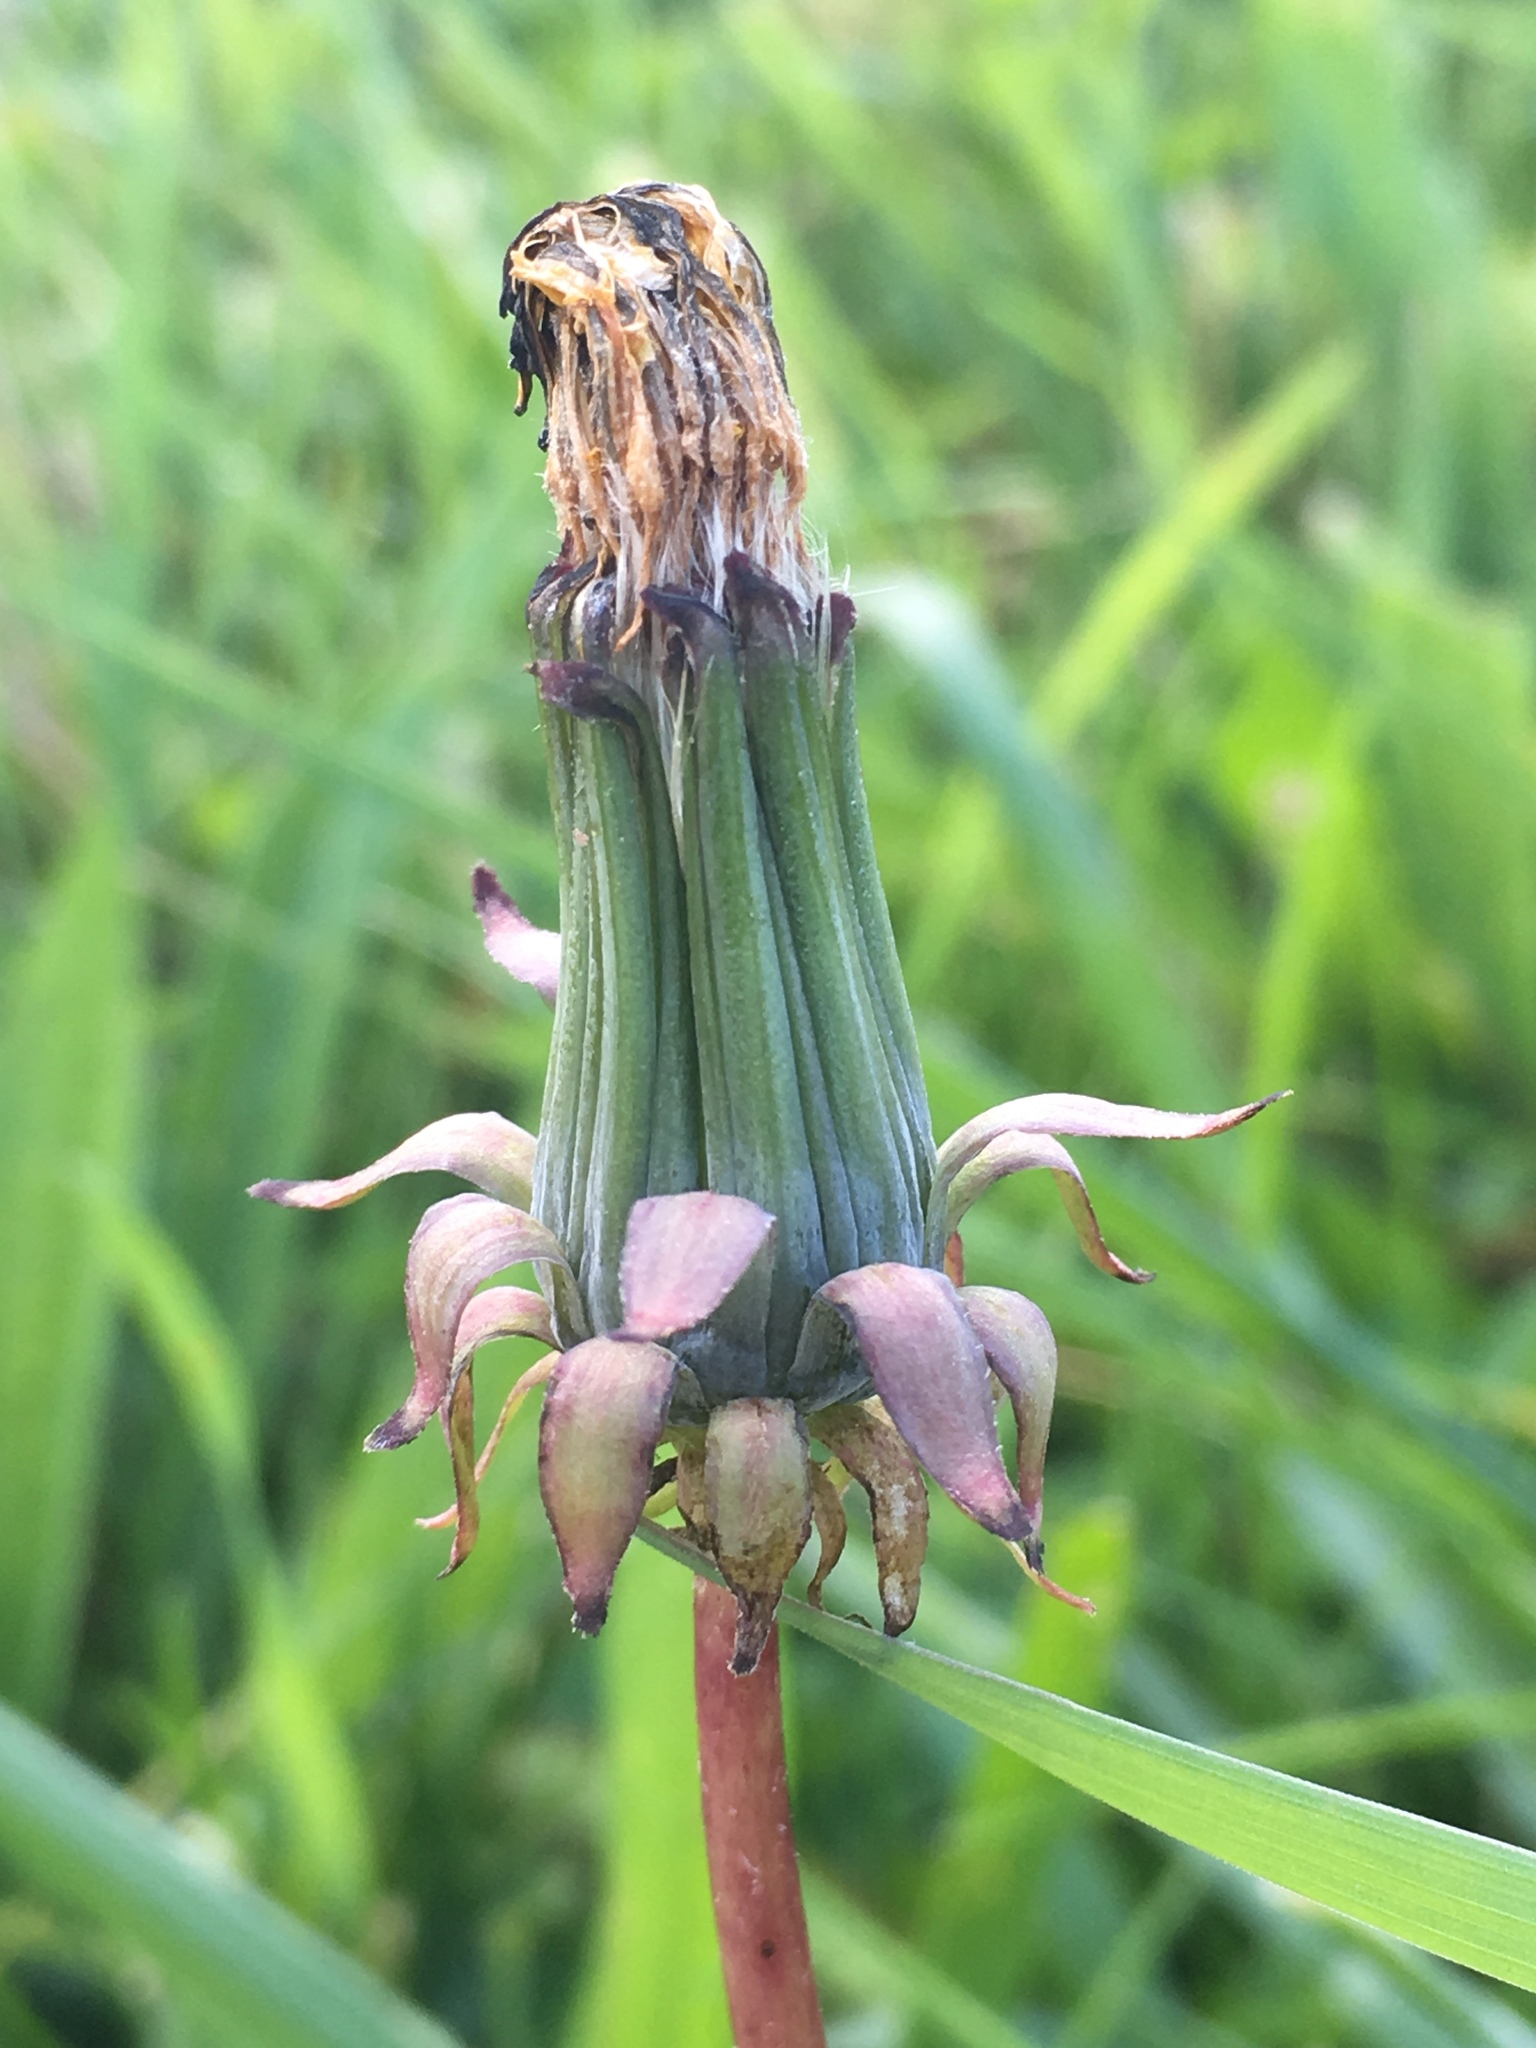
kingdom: Plantae
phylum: Tracheophyta
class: Magnoliopsida
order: Asterales
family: Asteraceae
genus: Taraxacum
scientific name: Taraxacum officinale
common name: Common dandelion
